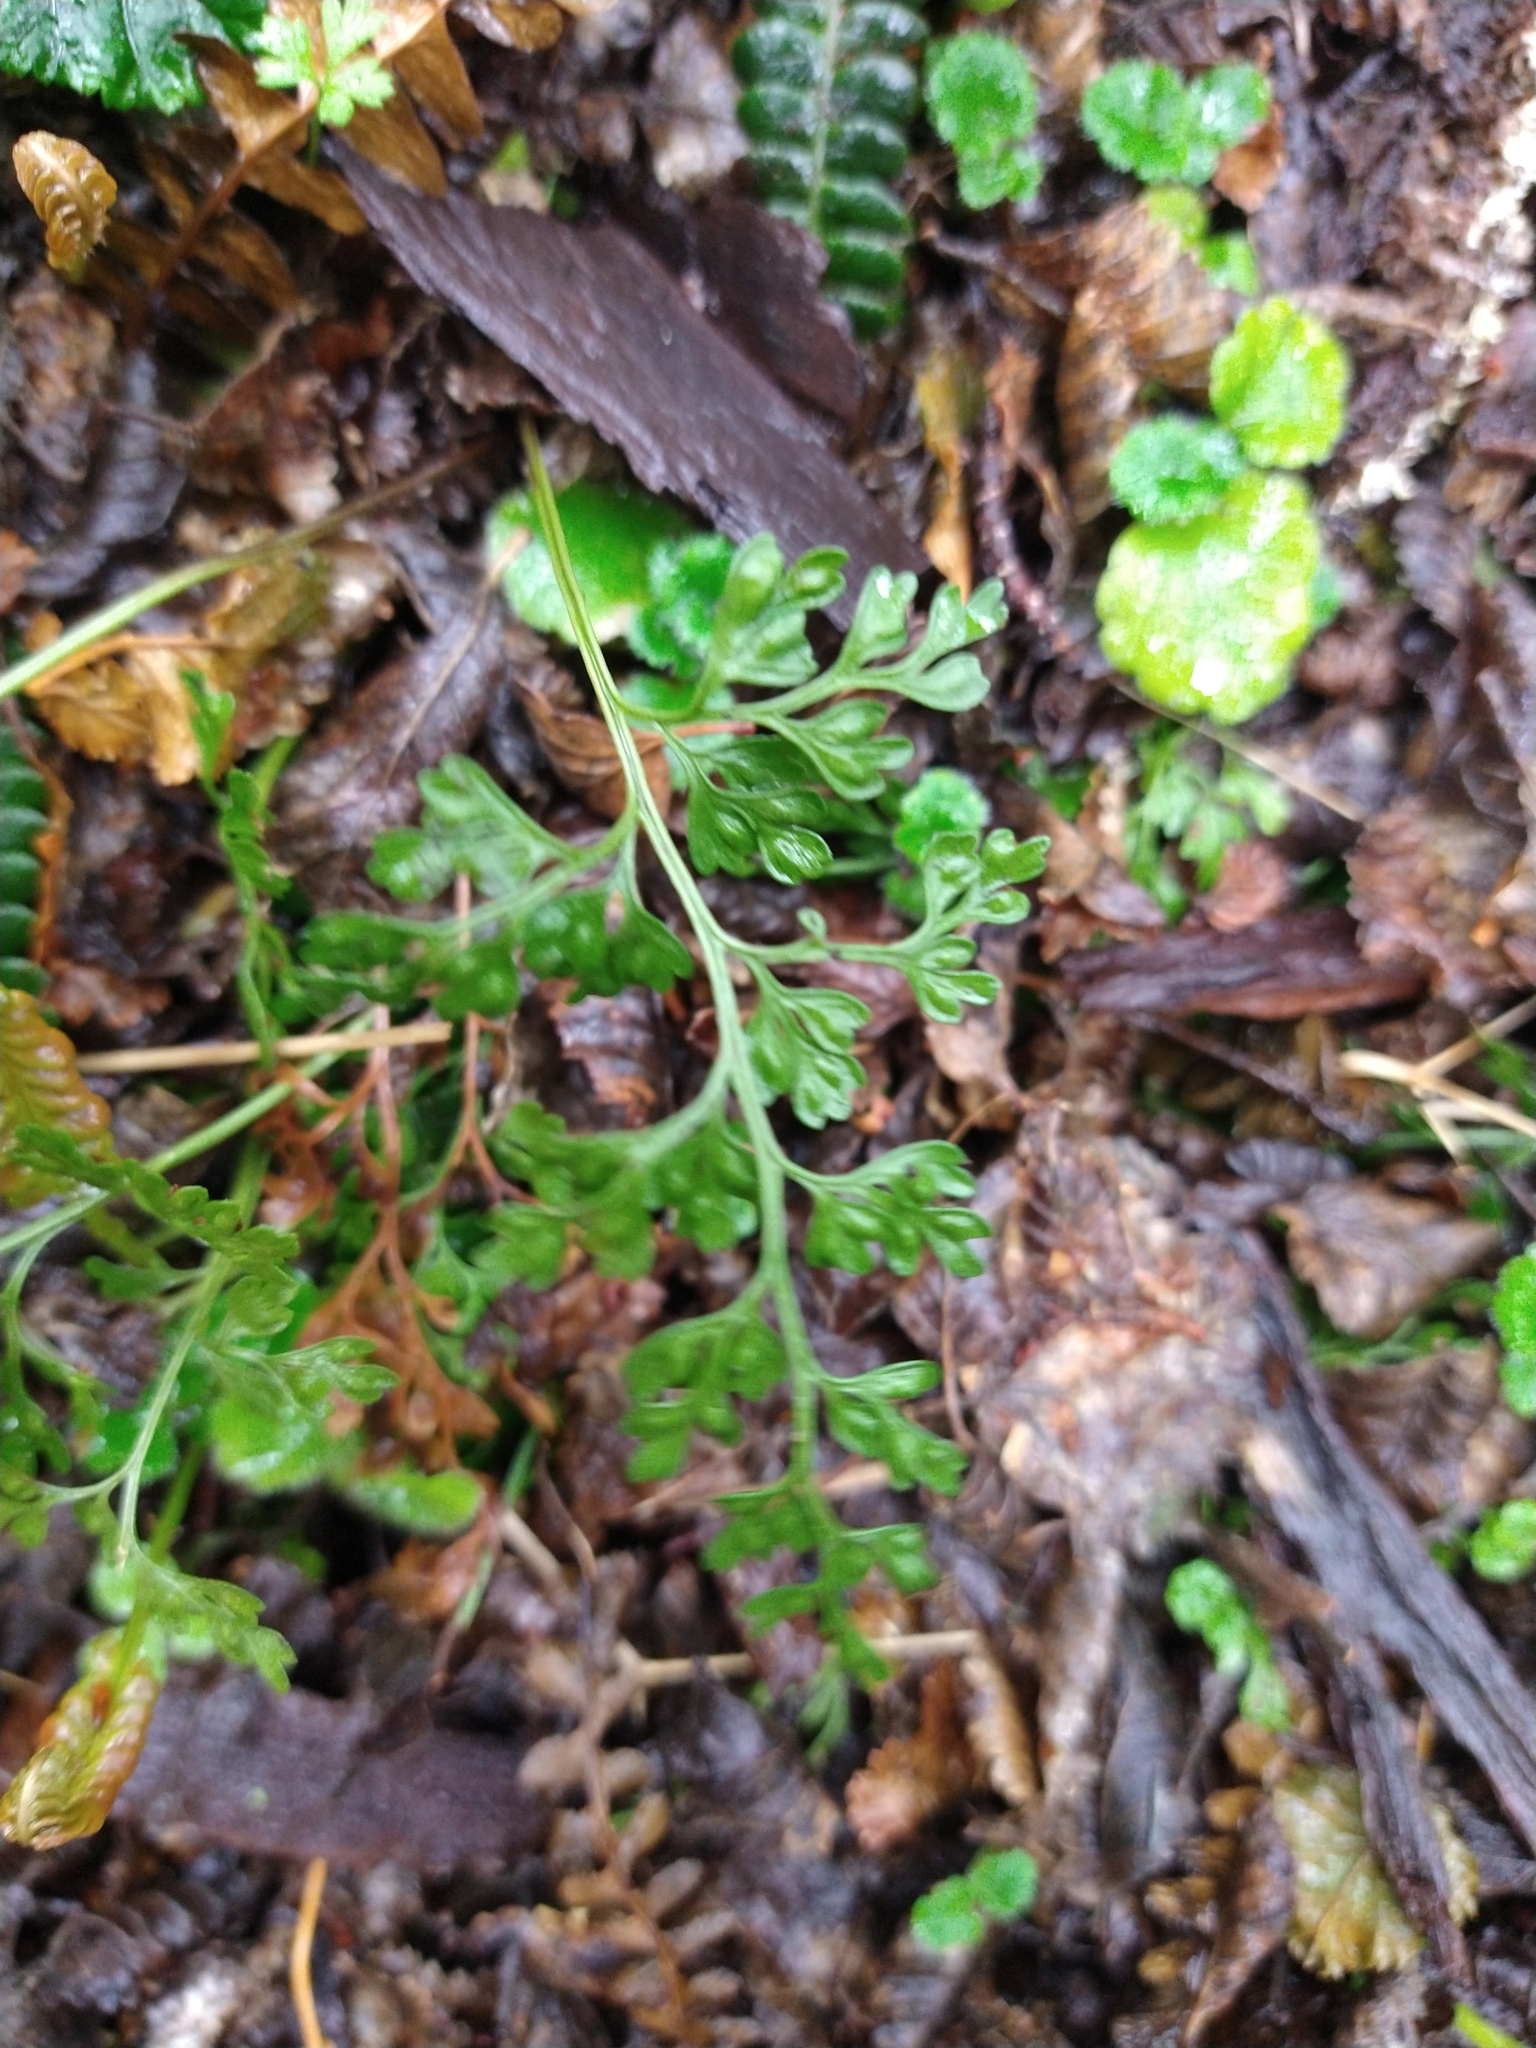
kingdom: Plantae
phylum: Tracheophyta
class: Polypodiopsida
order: Polypodiales
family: Aspleniaceae
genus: Asplenium
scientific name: Asplenium dareoides
